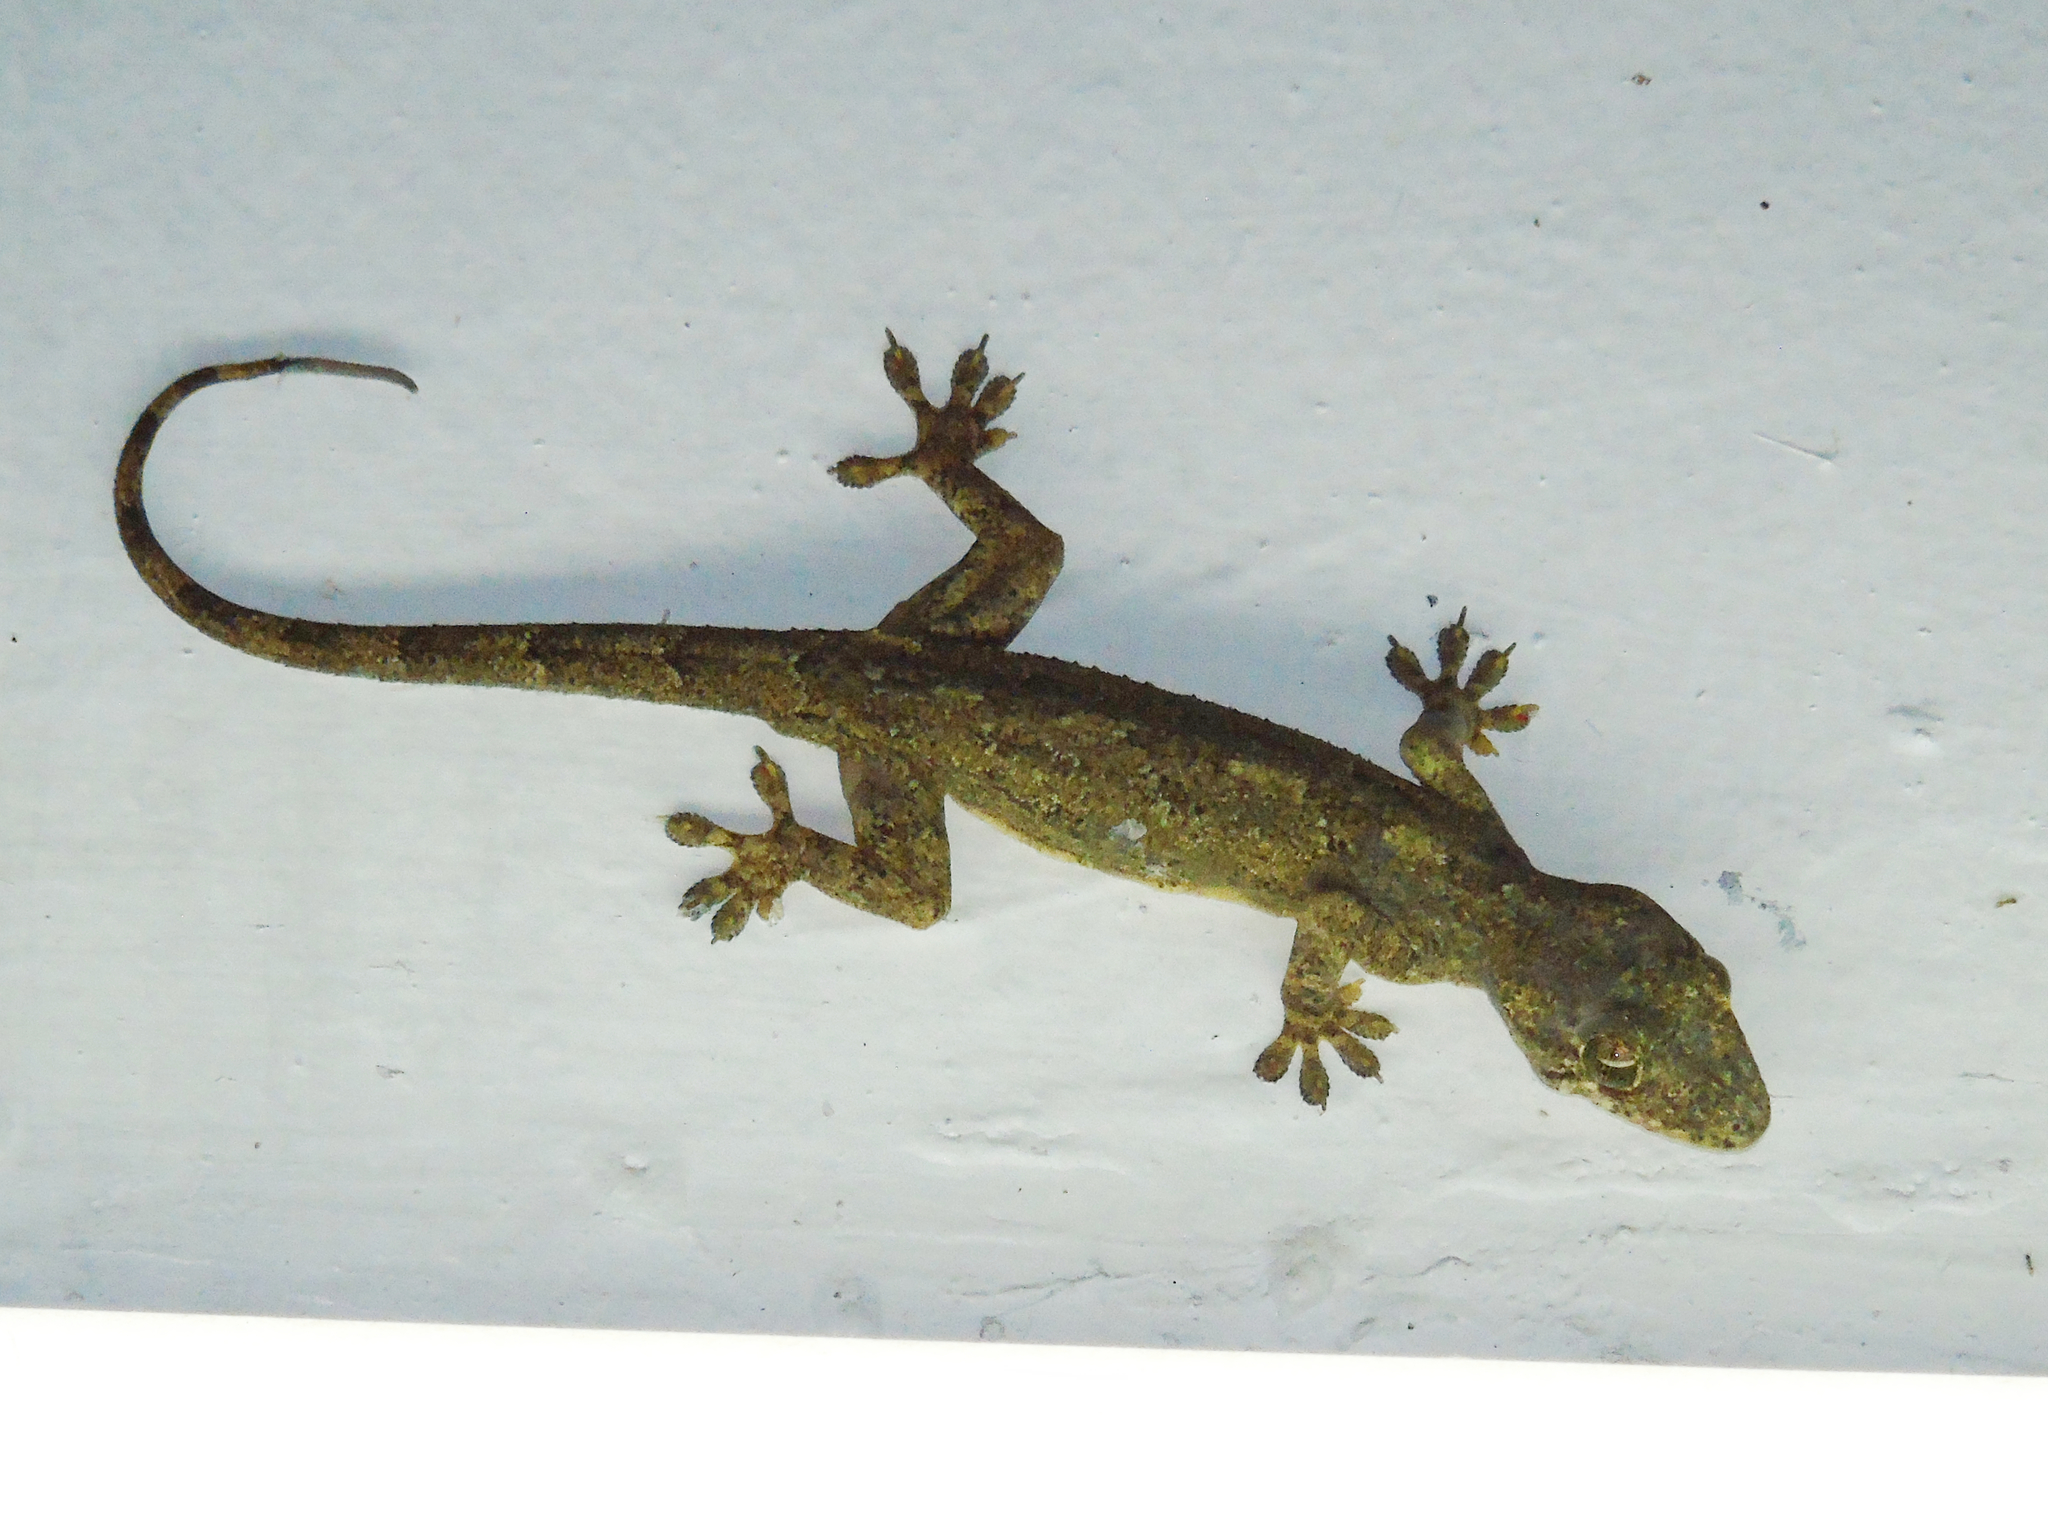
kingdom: Animalia
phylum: Chordata
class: Squamata
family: Gekkonidae
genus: Hemidactylus
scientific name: Hemidactylus mabouia
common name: House gecko
